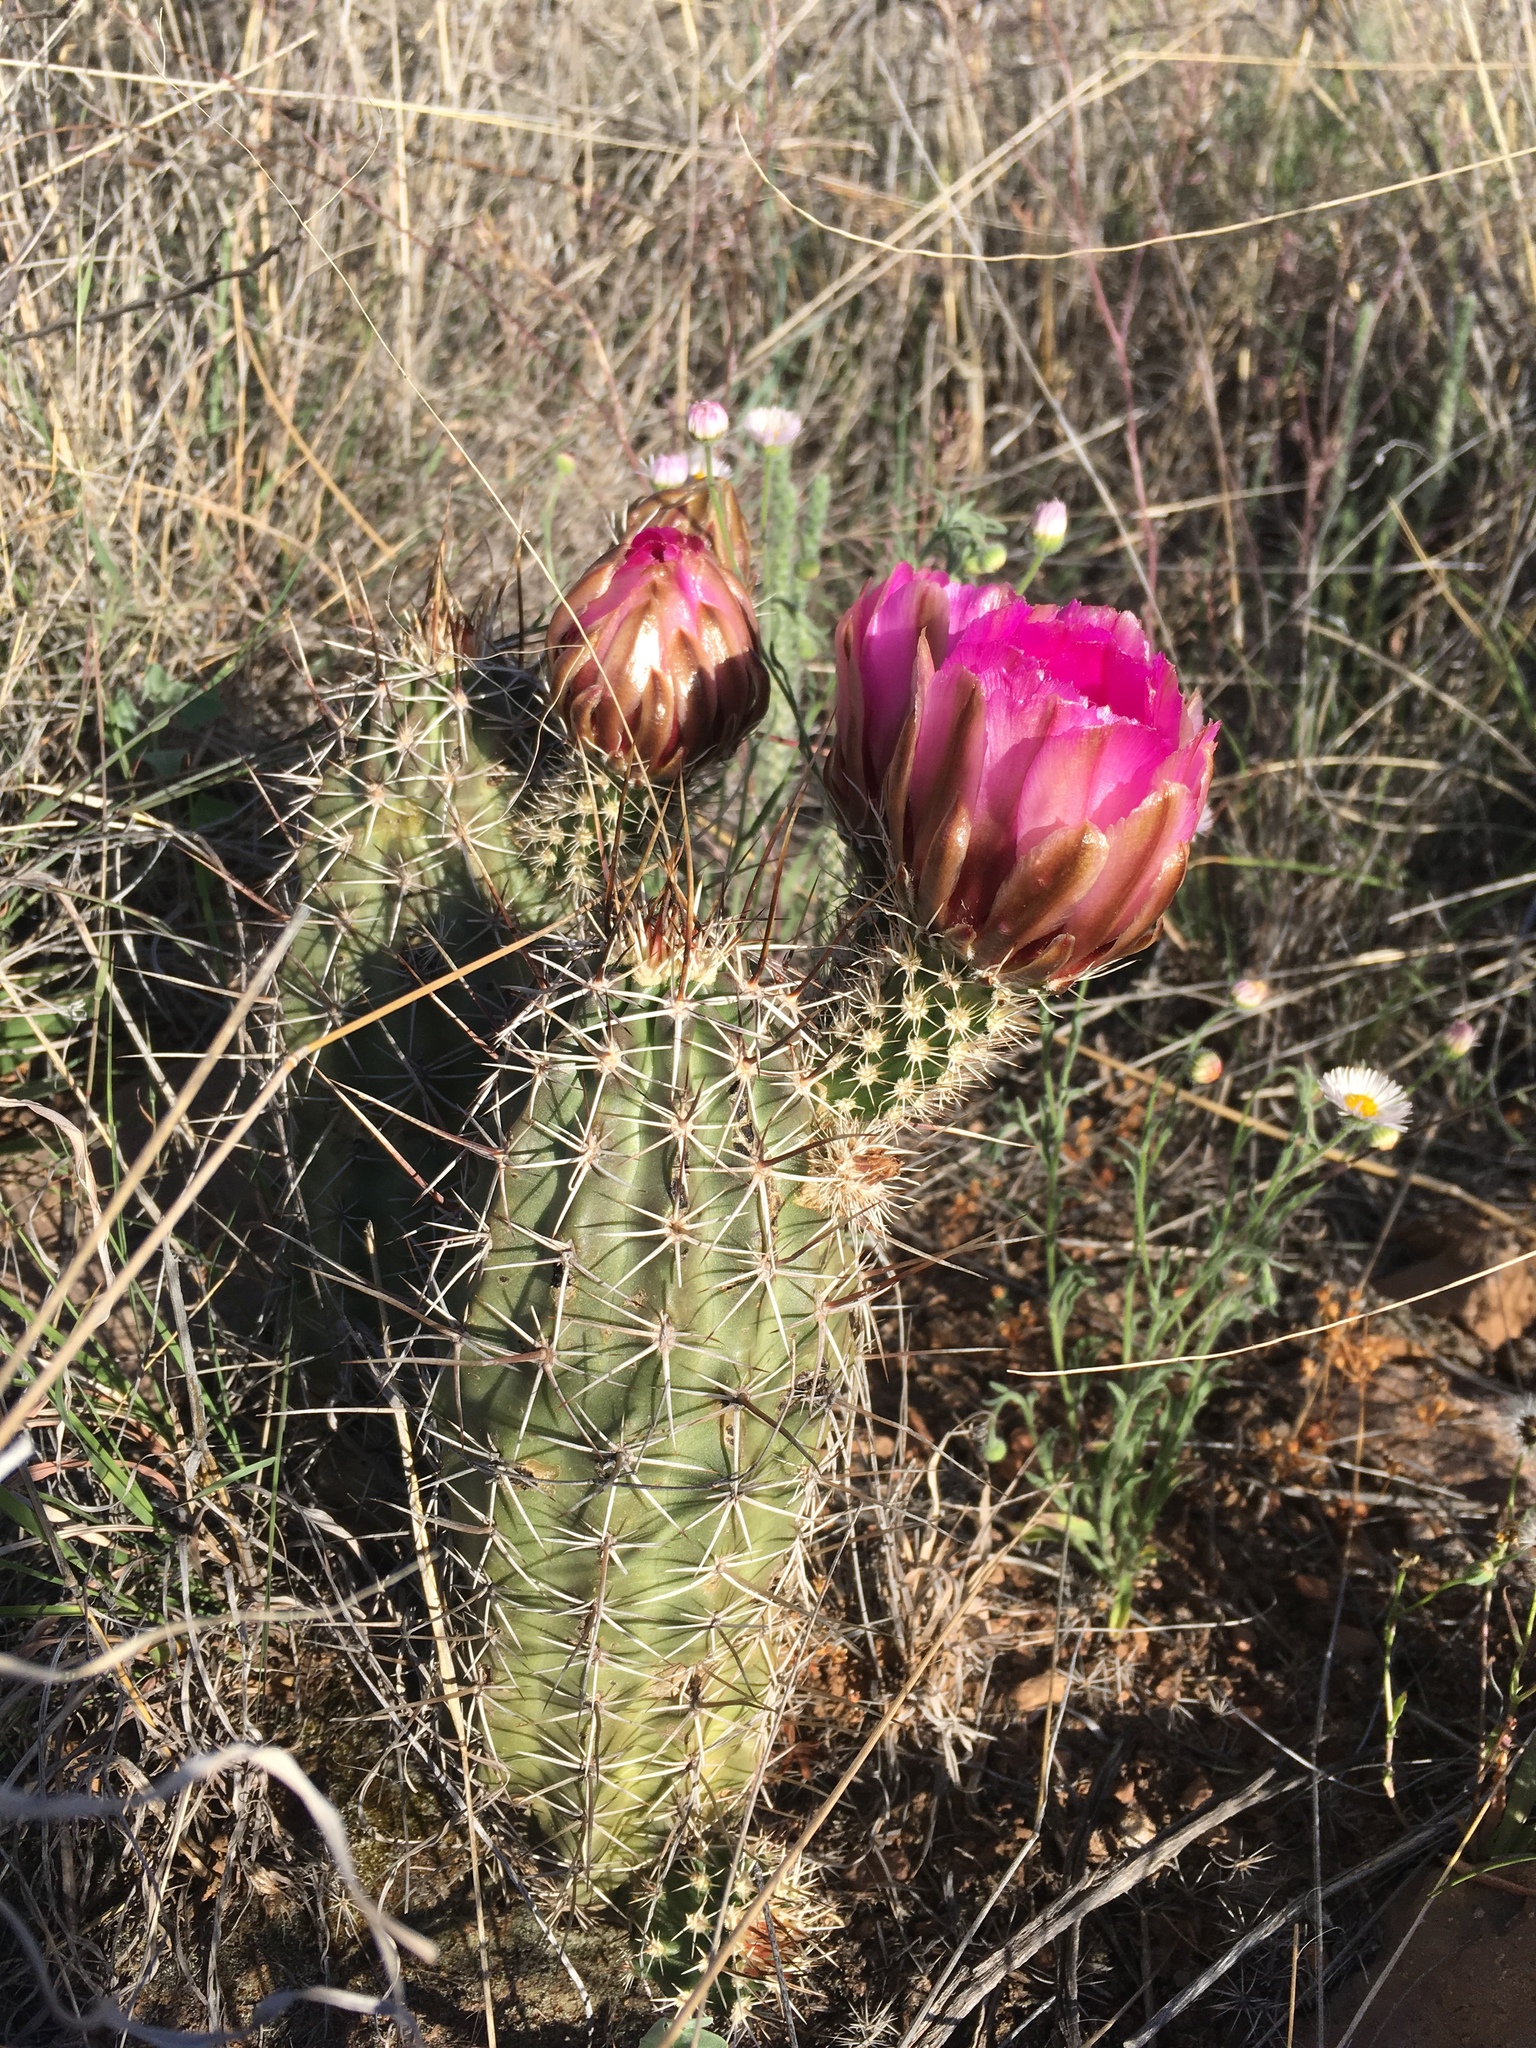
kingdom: Plantae
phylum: Tracheophyta
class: Magnoliopsida
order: Caryophyllales
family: Cactaceae
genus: Echinocereus
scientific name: Echinocereus fendleri
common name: Fendler's hedgehog cactus
